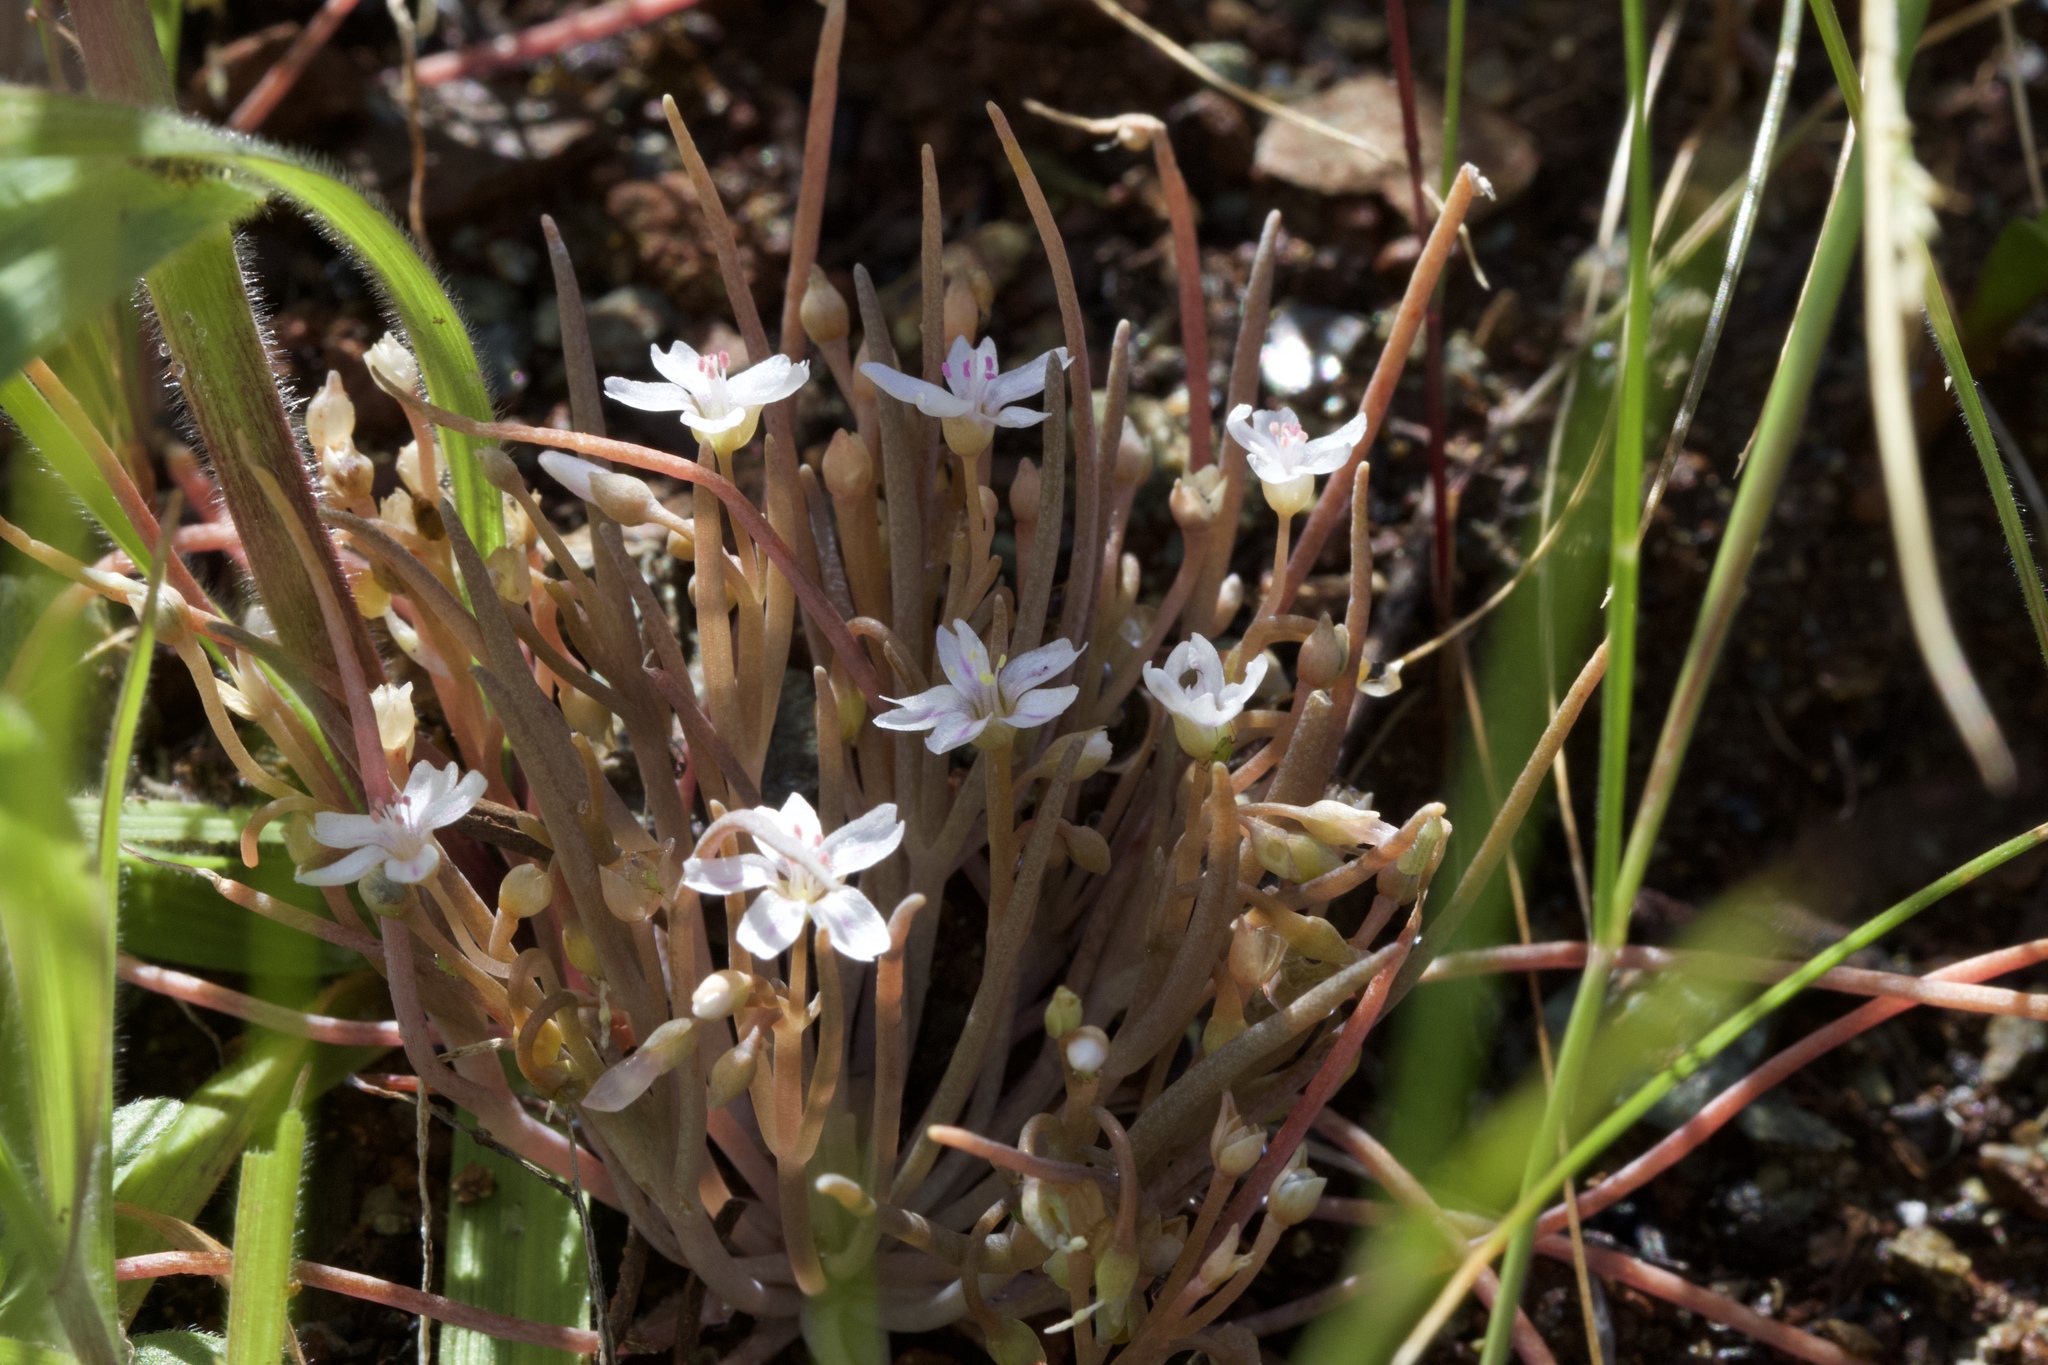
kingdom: Plantae
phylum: Tracheophyta
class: Magnoliopsida
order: Caryophyllales
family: Montiaceae
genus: Claytonia
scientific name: Claytonia exigua
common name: Pale spring beauty
